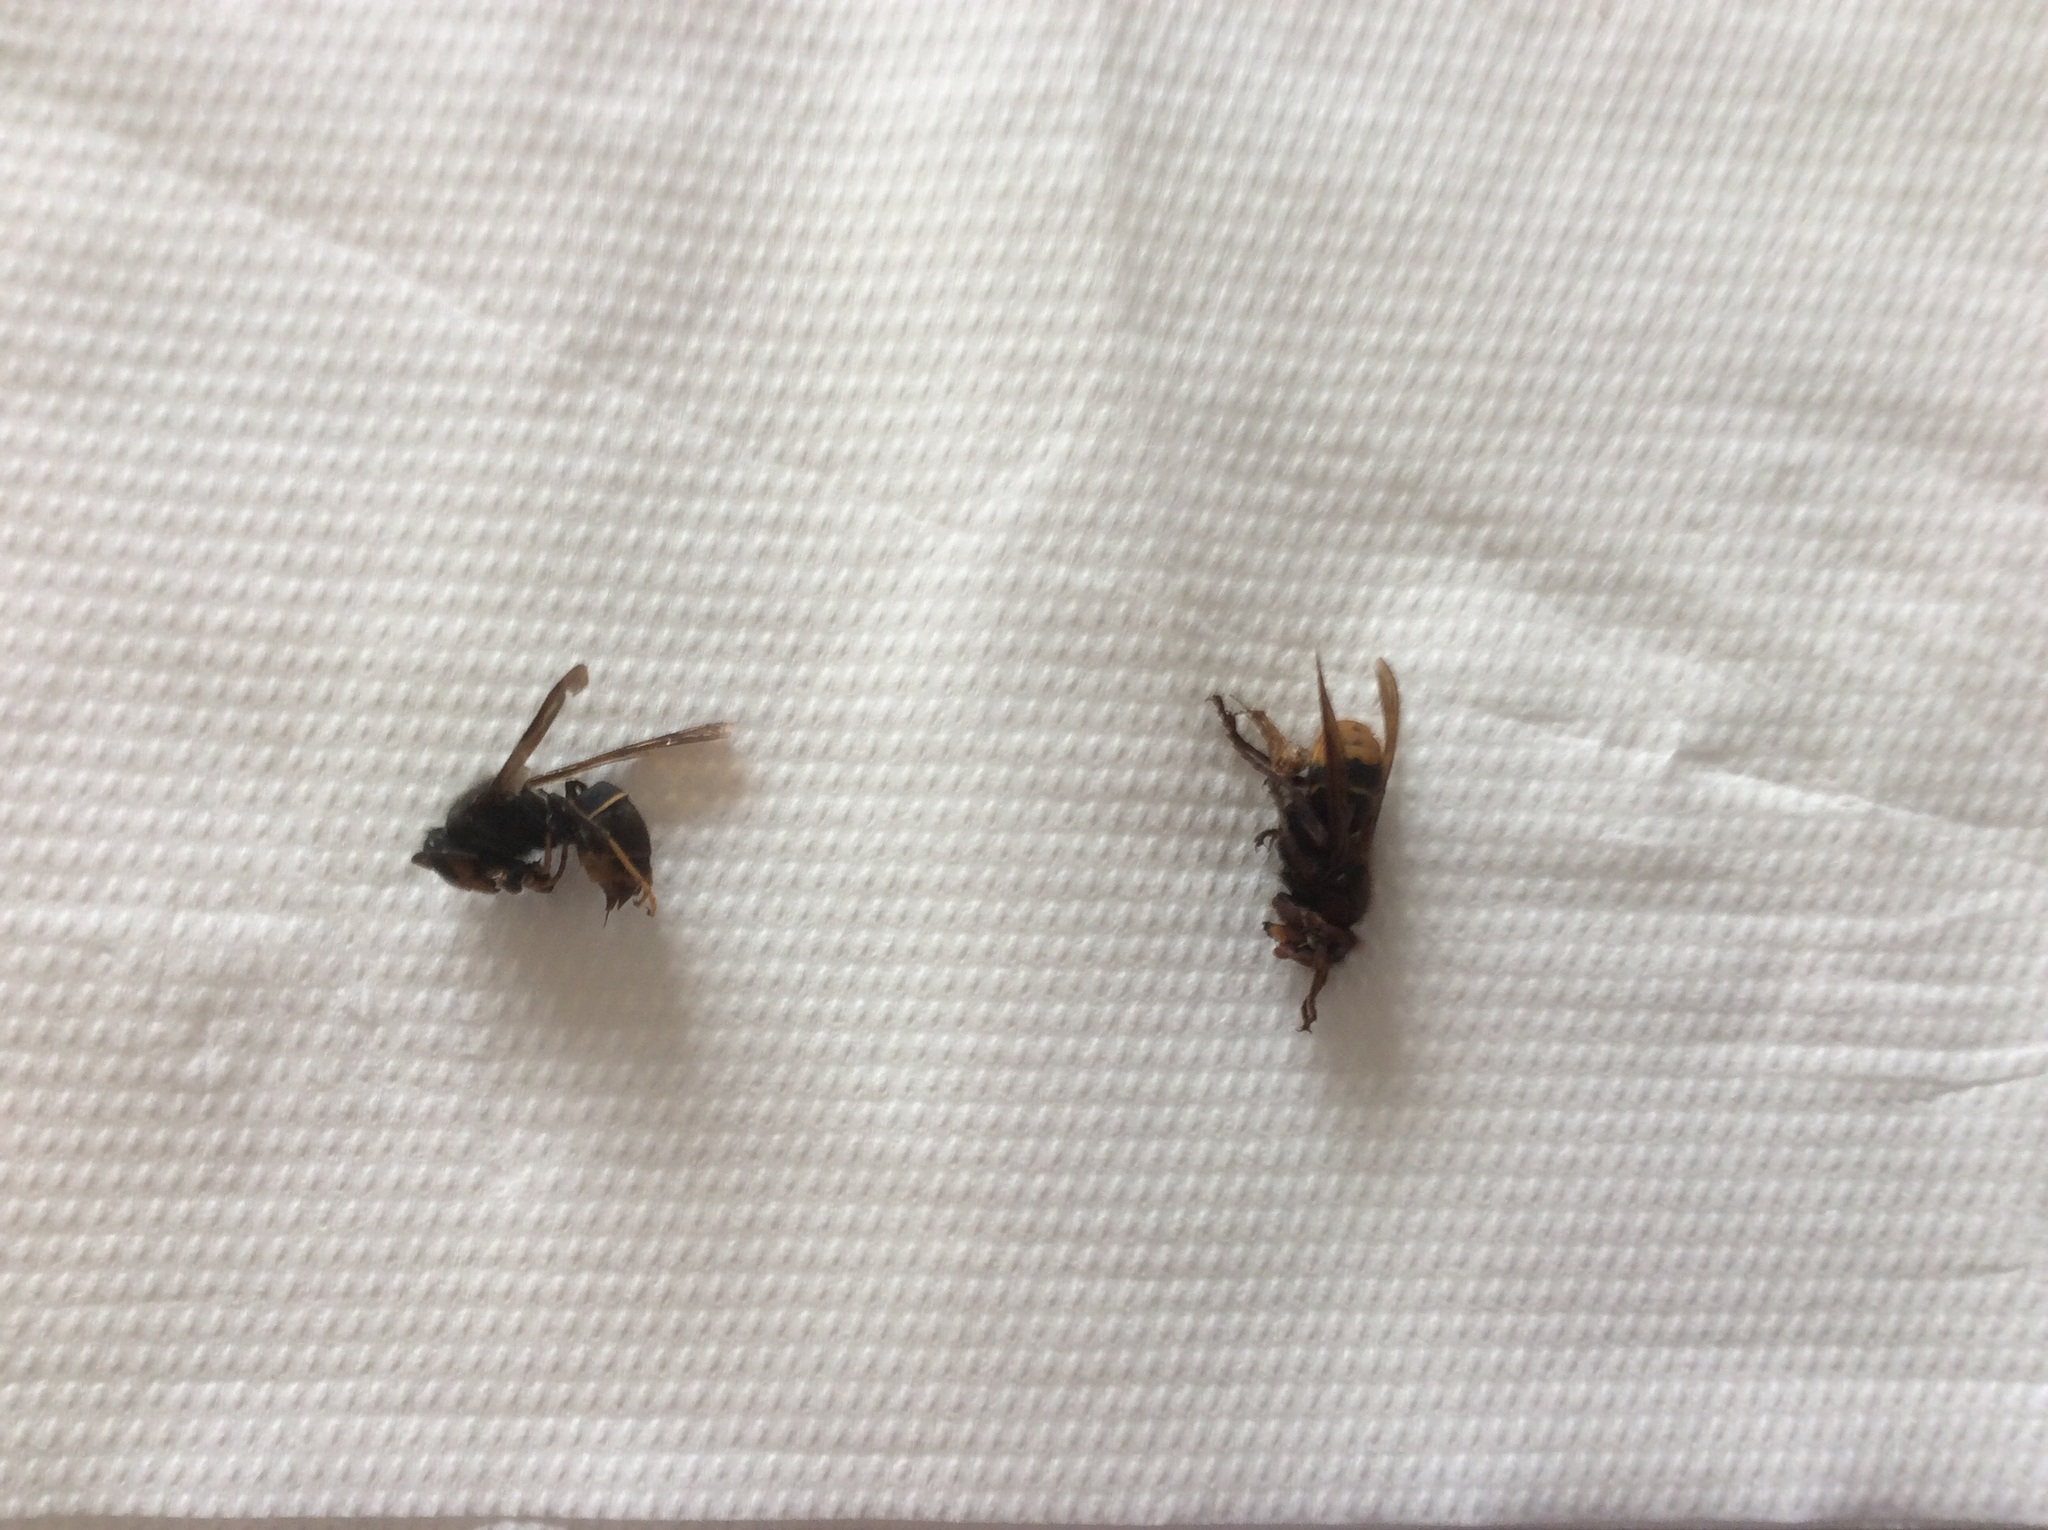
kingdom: Animalia
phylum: Arthropoda
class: Insecta
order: Hymenoptera
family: Vespidae
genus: Vespa
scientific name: Vespa velutina
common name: Asian hornet
